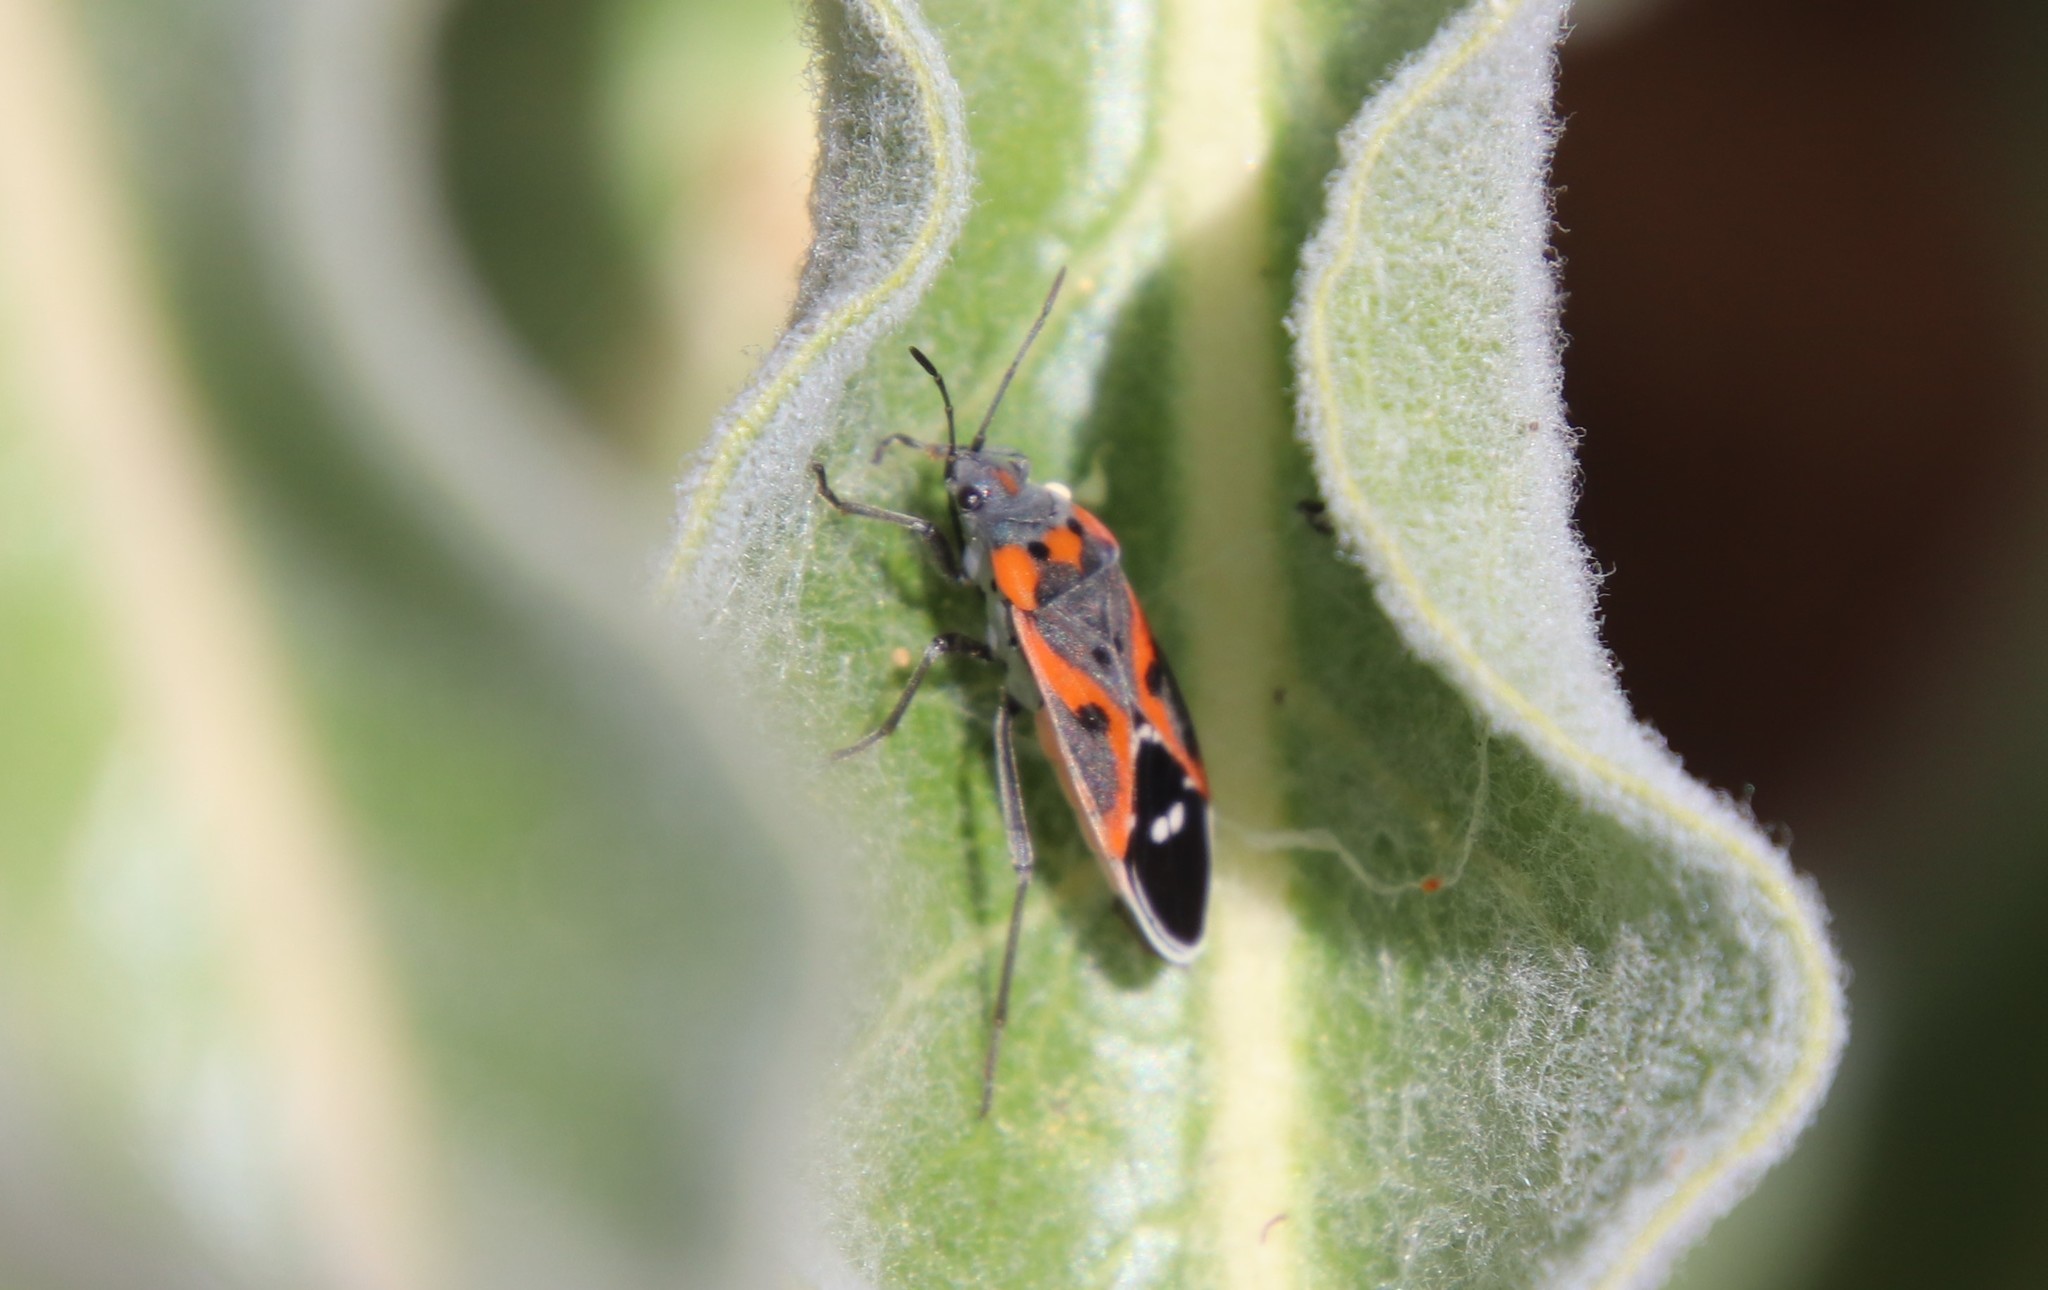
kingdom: Animalia
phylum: Arthropoda
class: Insecta
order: Hemiptera
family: Lygaeidae
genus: Lygaeus
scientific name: Lygaeus kalmii
